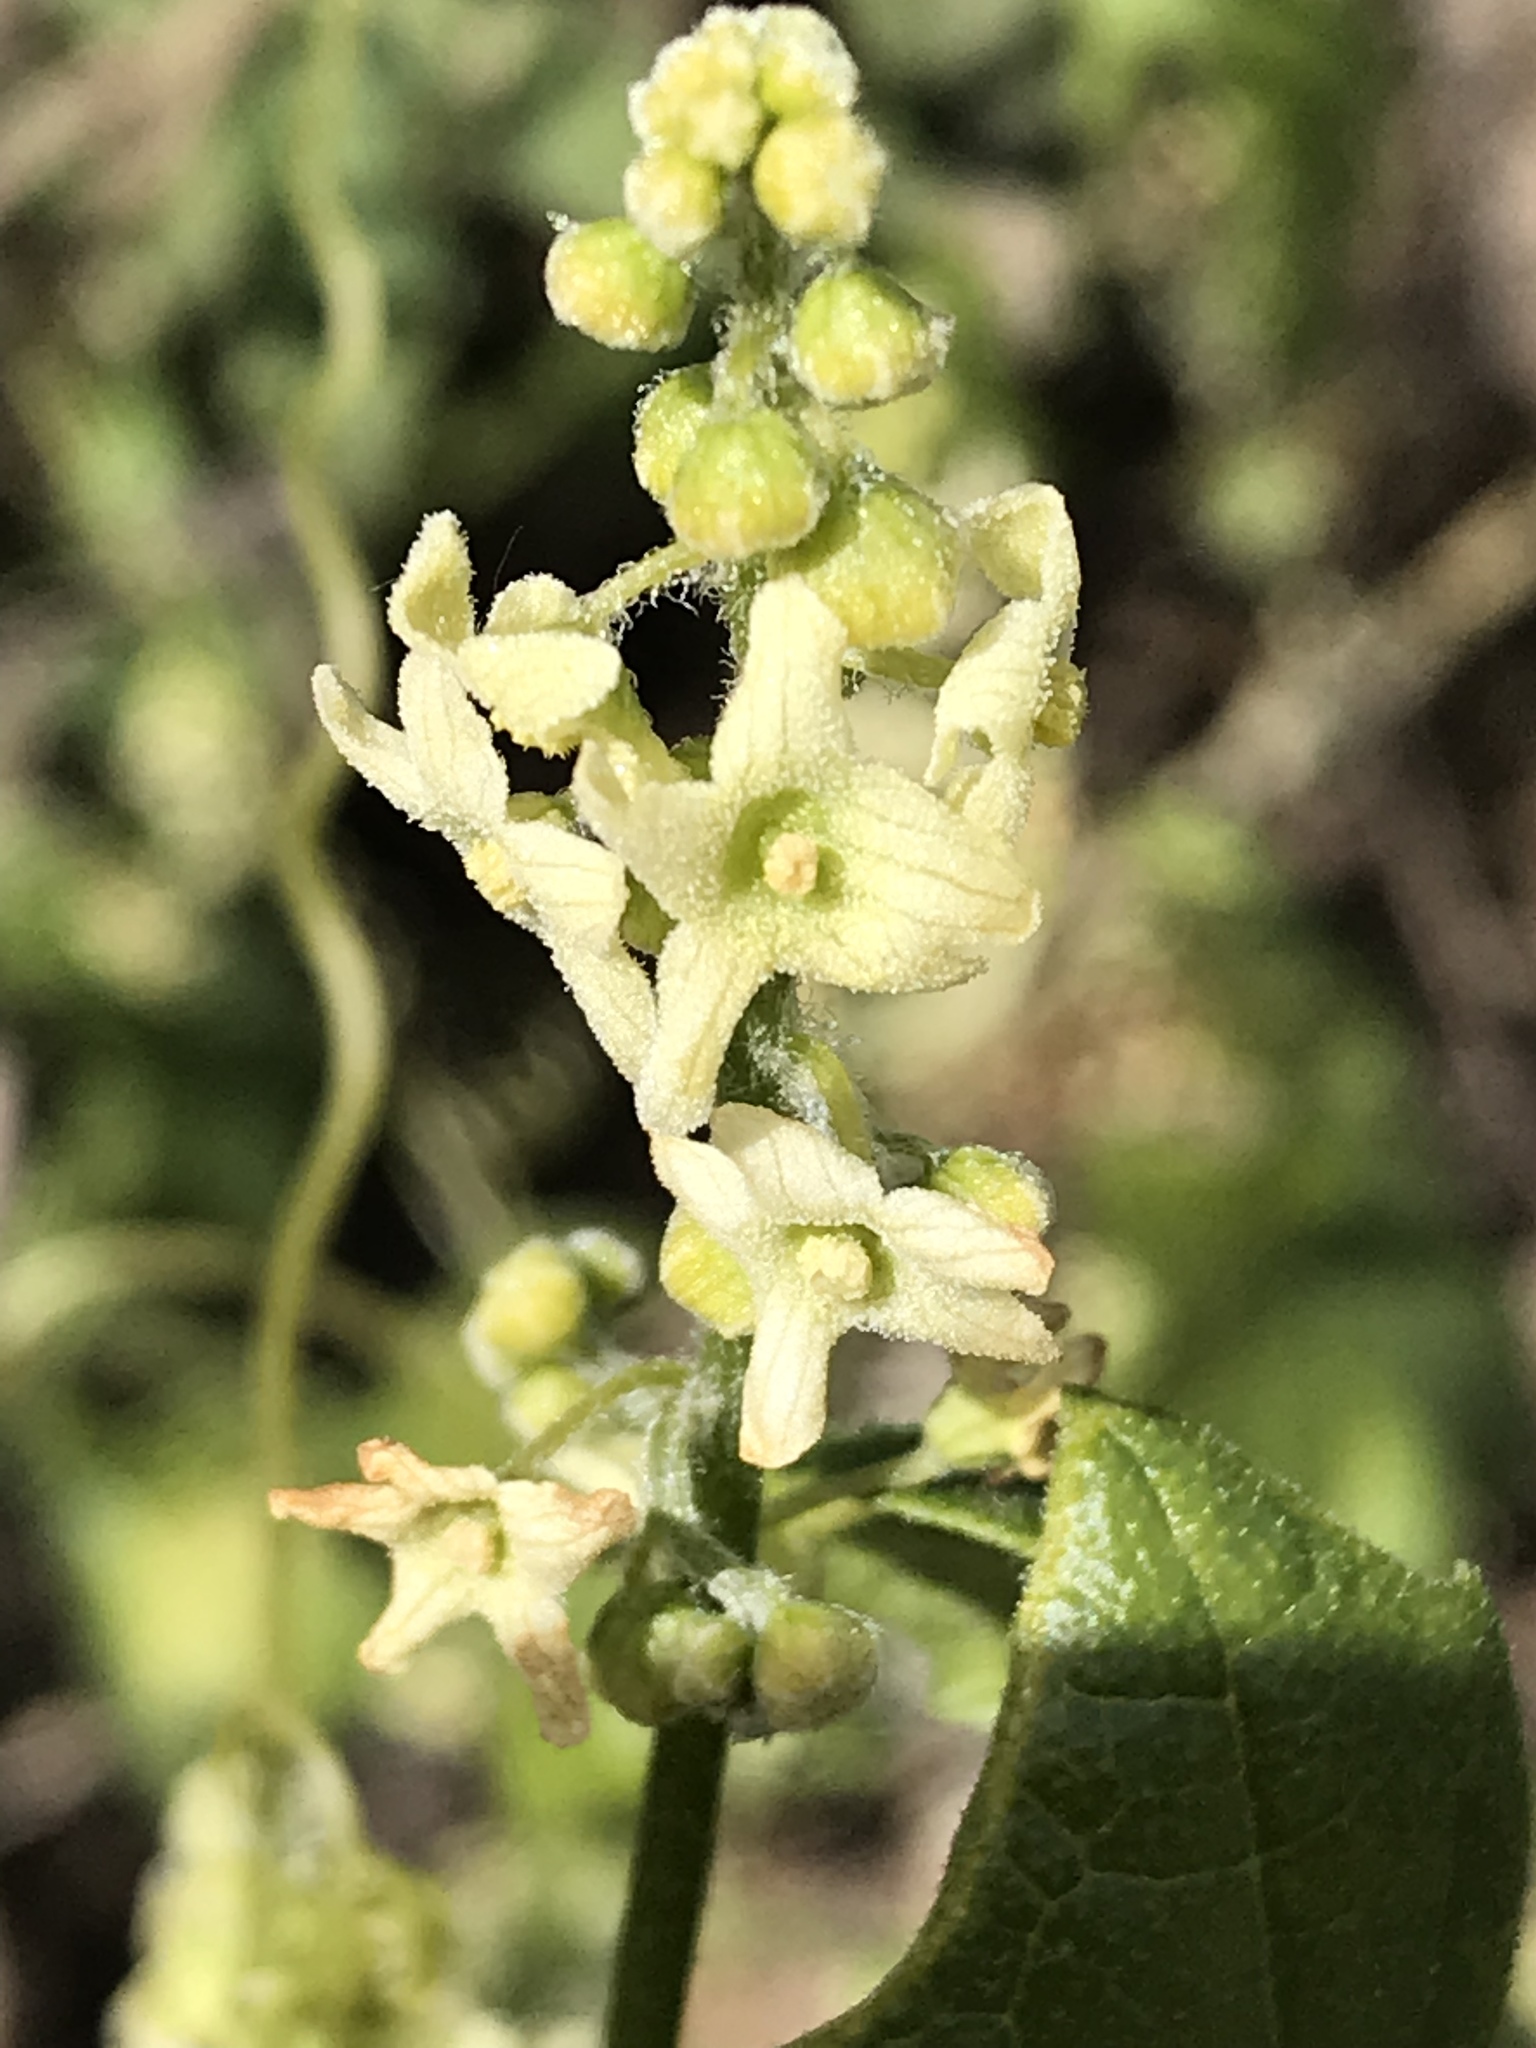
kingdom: Plantae
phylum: Tracheophyta
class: Magnoliopsida
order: Cucurbitales
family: Cucurbitaceae
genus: Marah
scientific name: Marah fabacea
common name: California manroot
